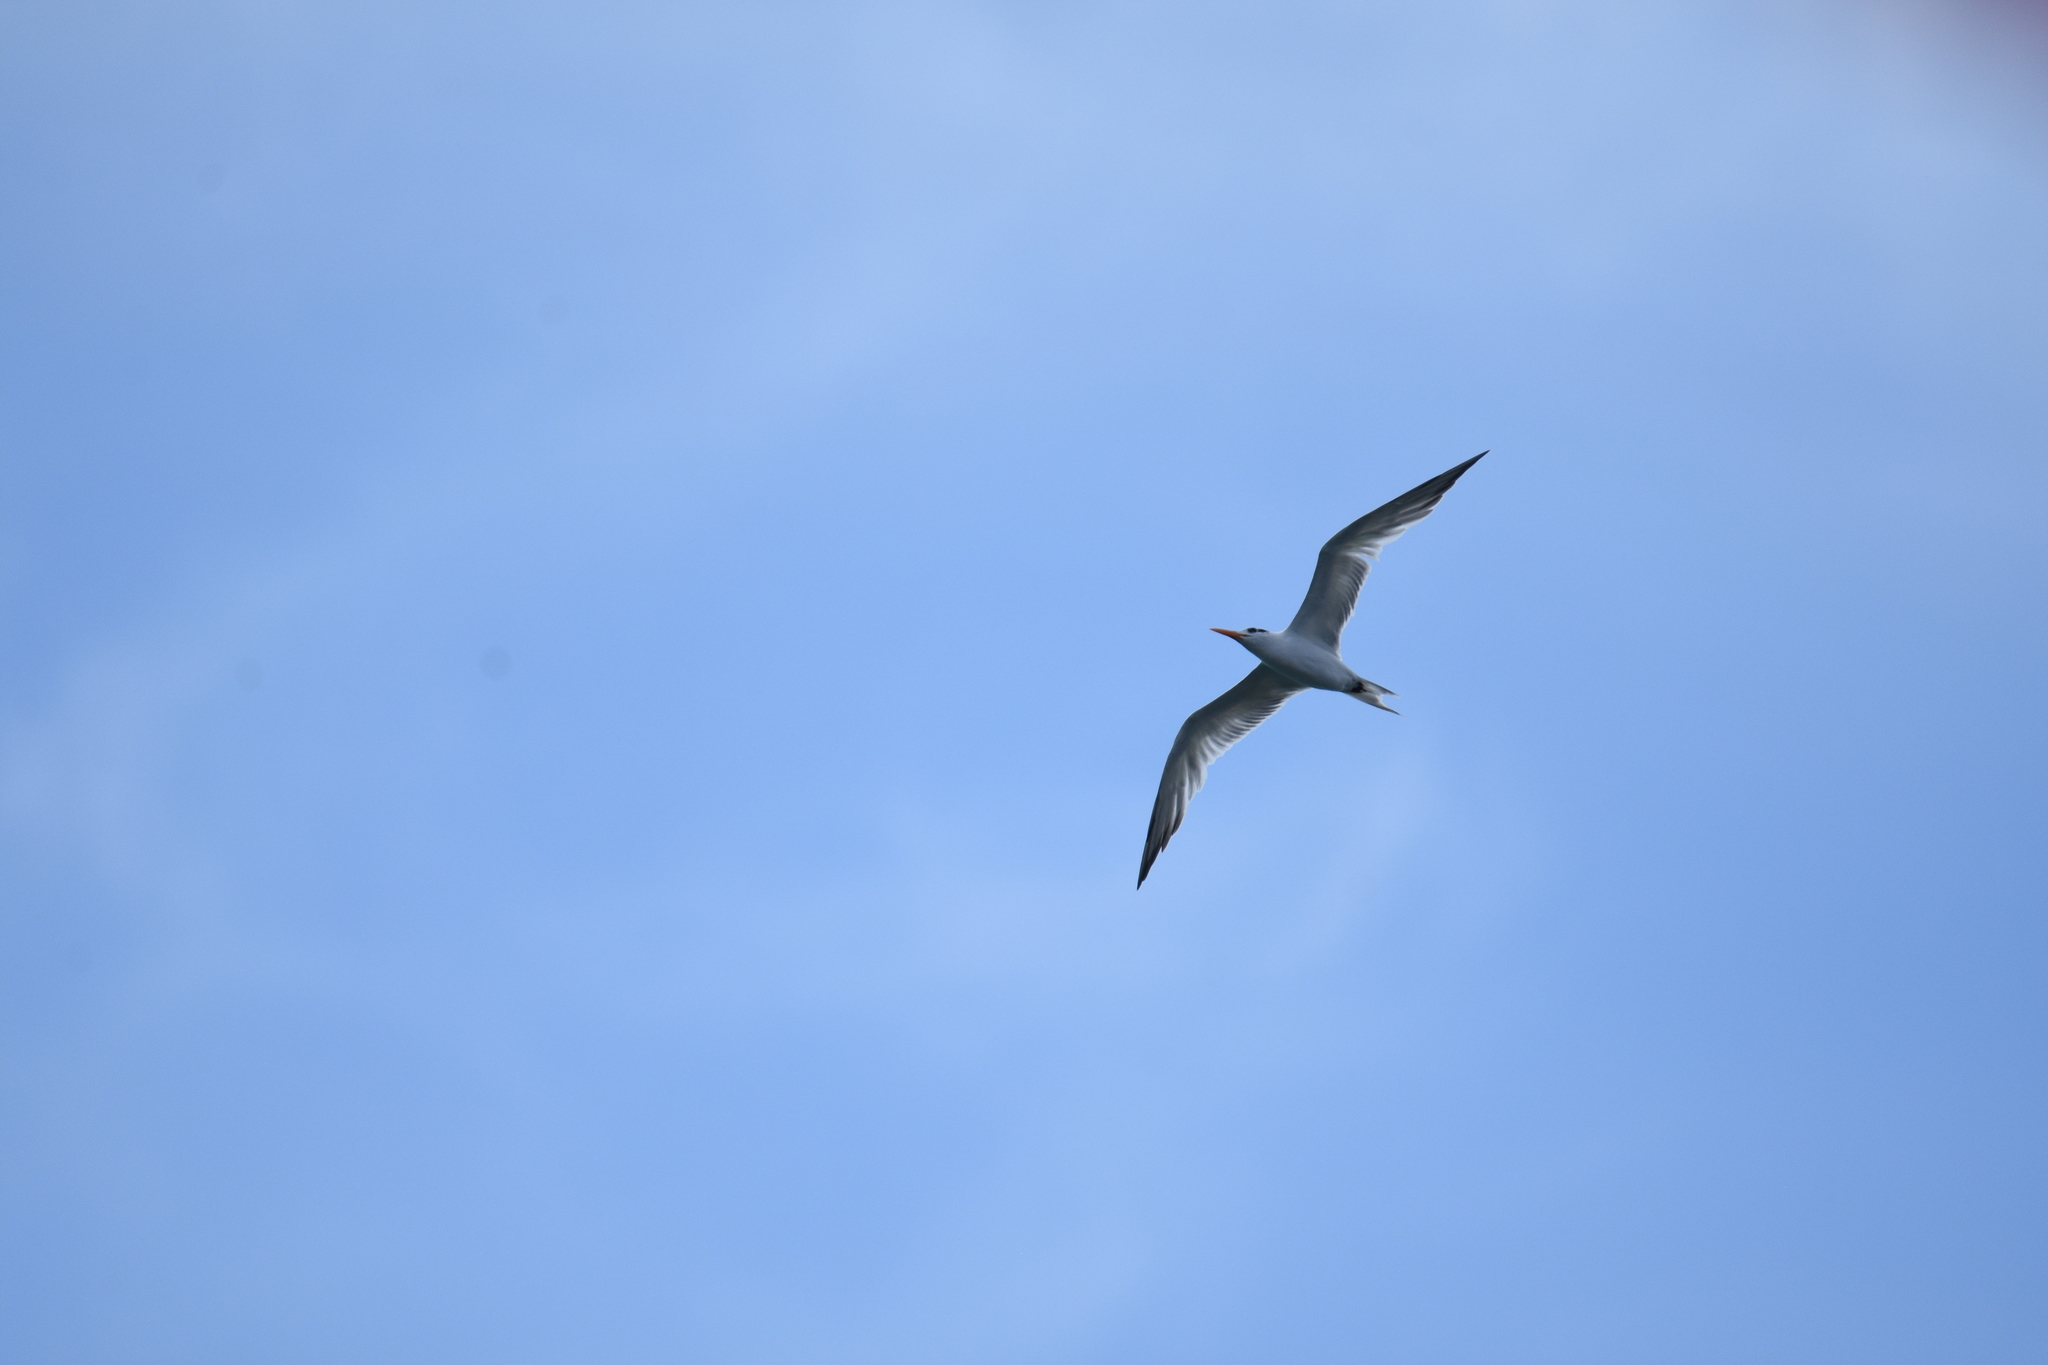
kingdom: Animalia
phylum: Chordata
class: Aves
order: Charadriiformes
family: Laridae
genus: Thalasseus
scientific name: Thalasseus maximus
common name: Royal tern
